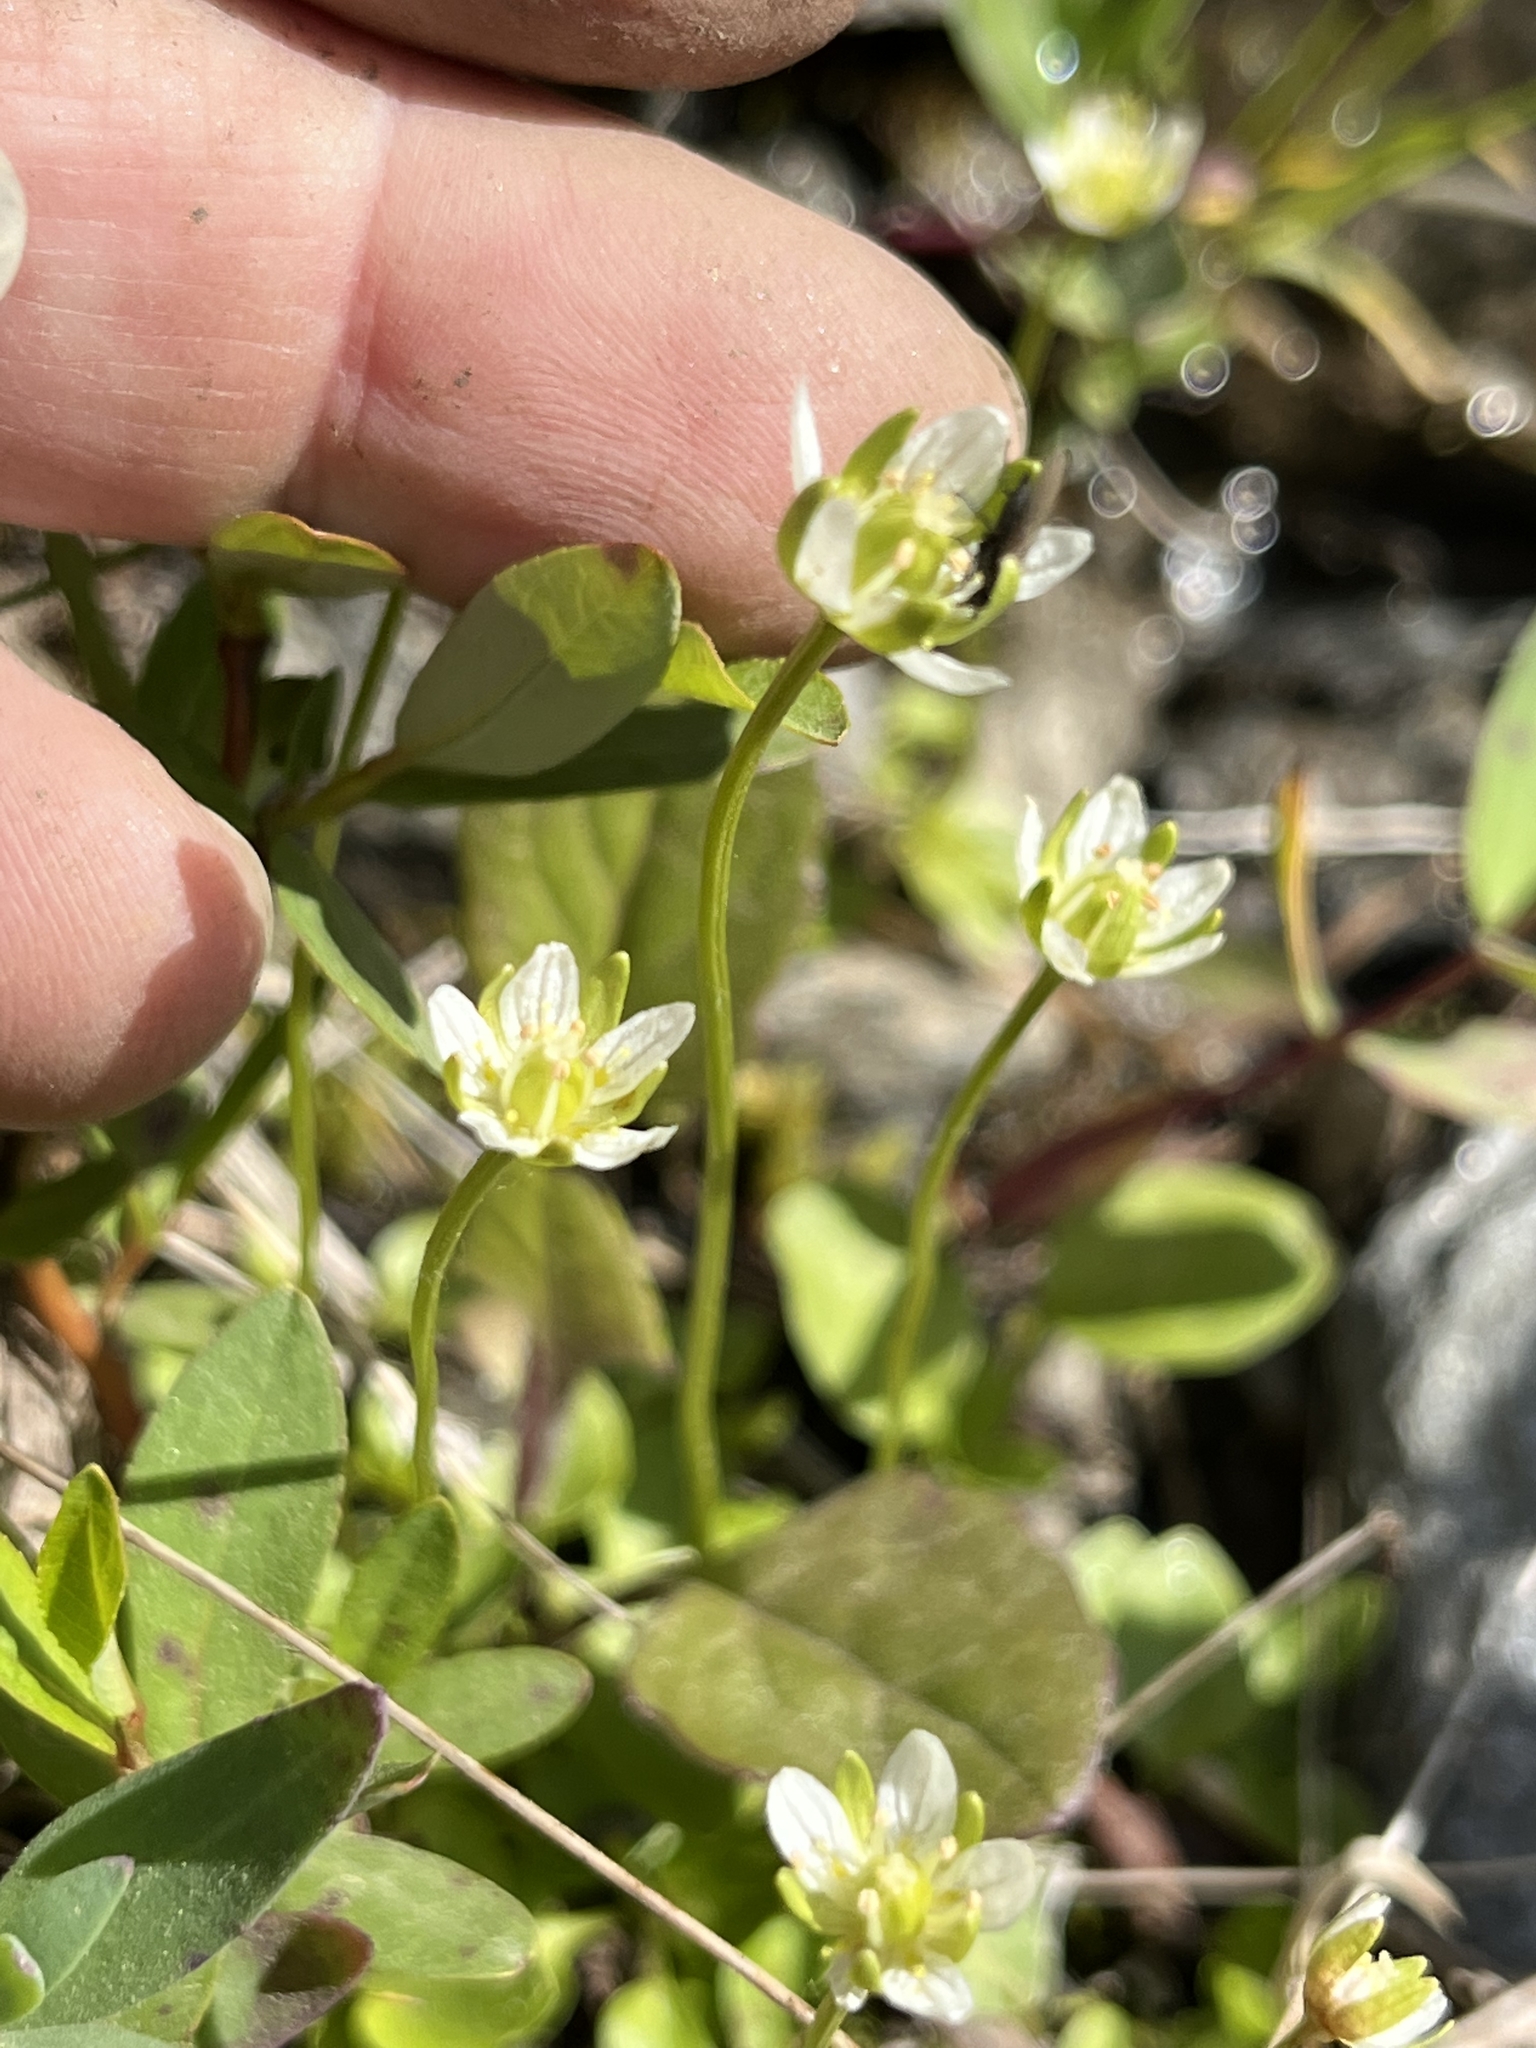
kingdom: Plantae
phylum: Tracheophyta
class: Magnoliopsida
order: Celastrales
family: Parnassiaceae
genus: Parnassia
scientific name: Parnassia kotzebuei
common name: Kotzebue's grass-of-parnassus
